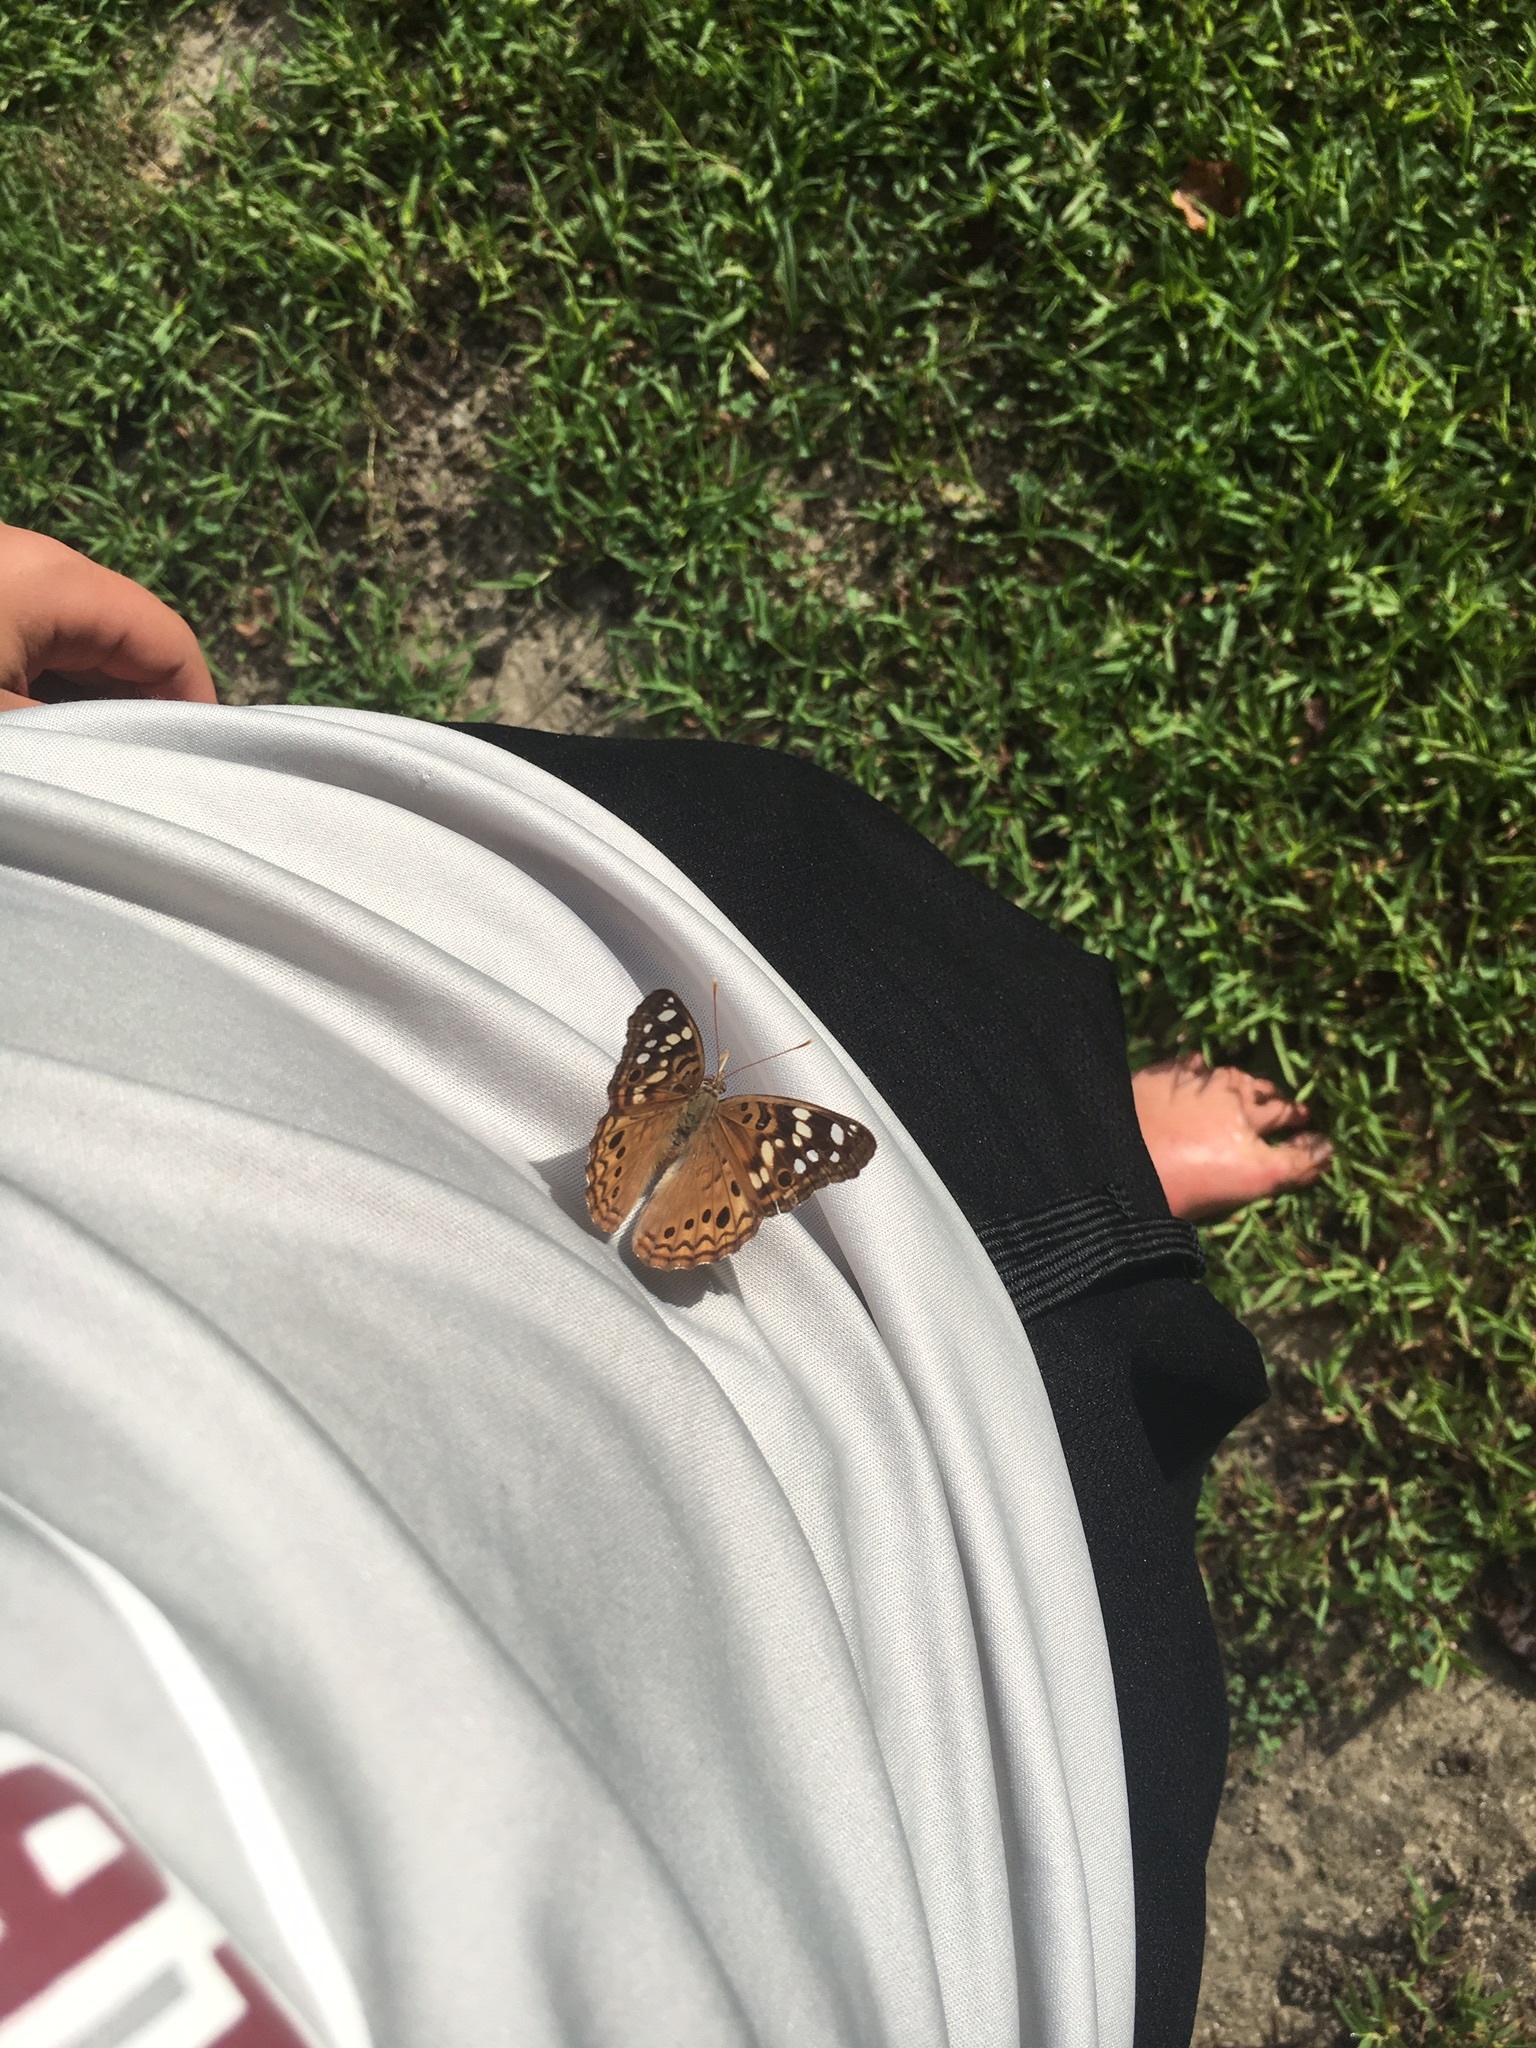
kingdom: Animalia
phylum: Arthropoda
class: Insecta
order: Lepidoptera
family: Nymphalidae
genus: Asterocampa
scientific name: Asterocampa celtis
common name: Hackberry emperor
